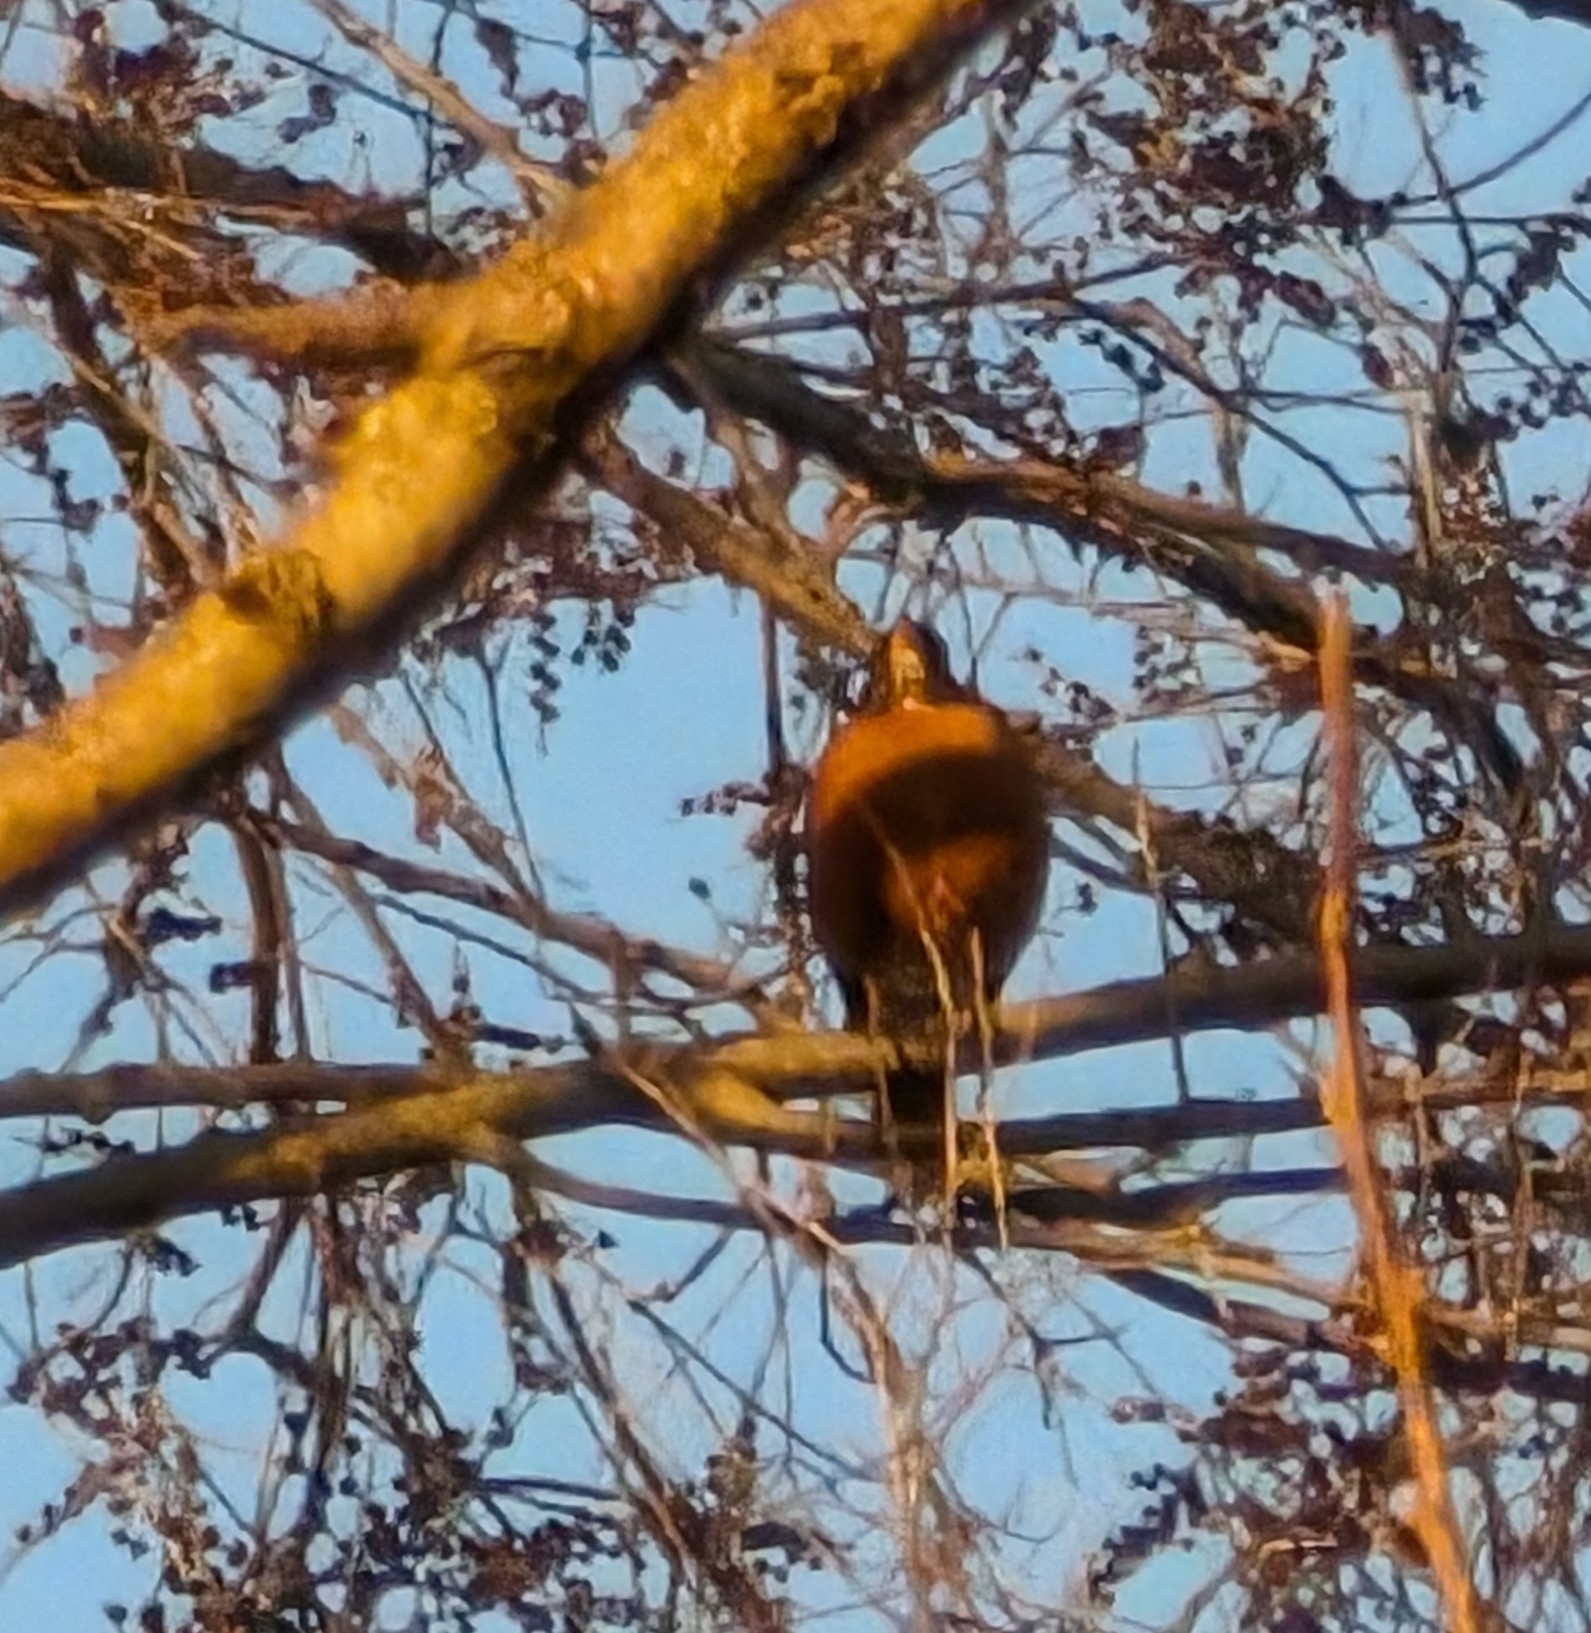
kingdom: Animalia
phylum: Chordata
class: Aves
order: Passeriformes
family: Turdidae
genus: Turdus
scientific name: Turdus migratorius
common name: American robin
